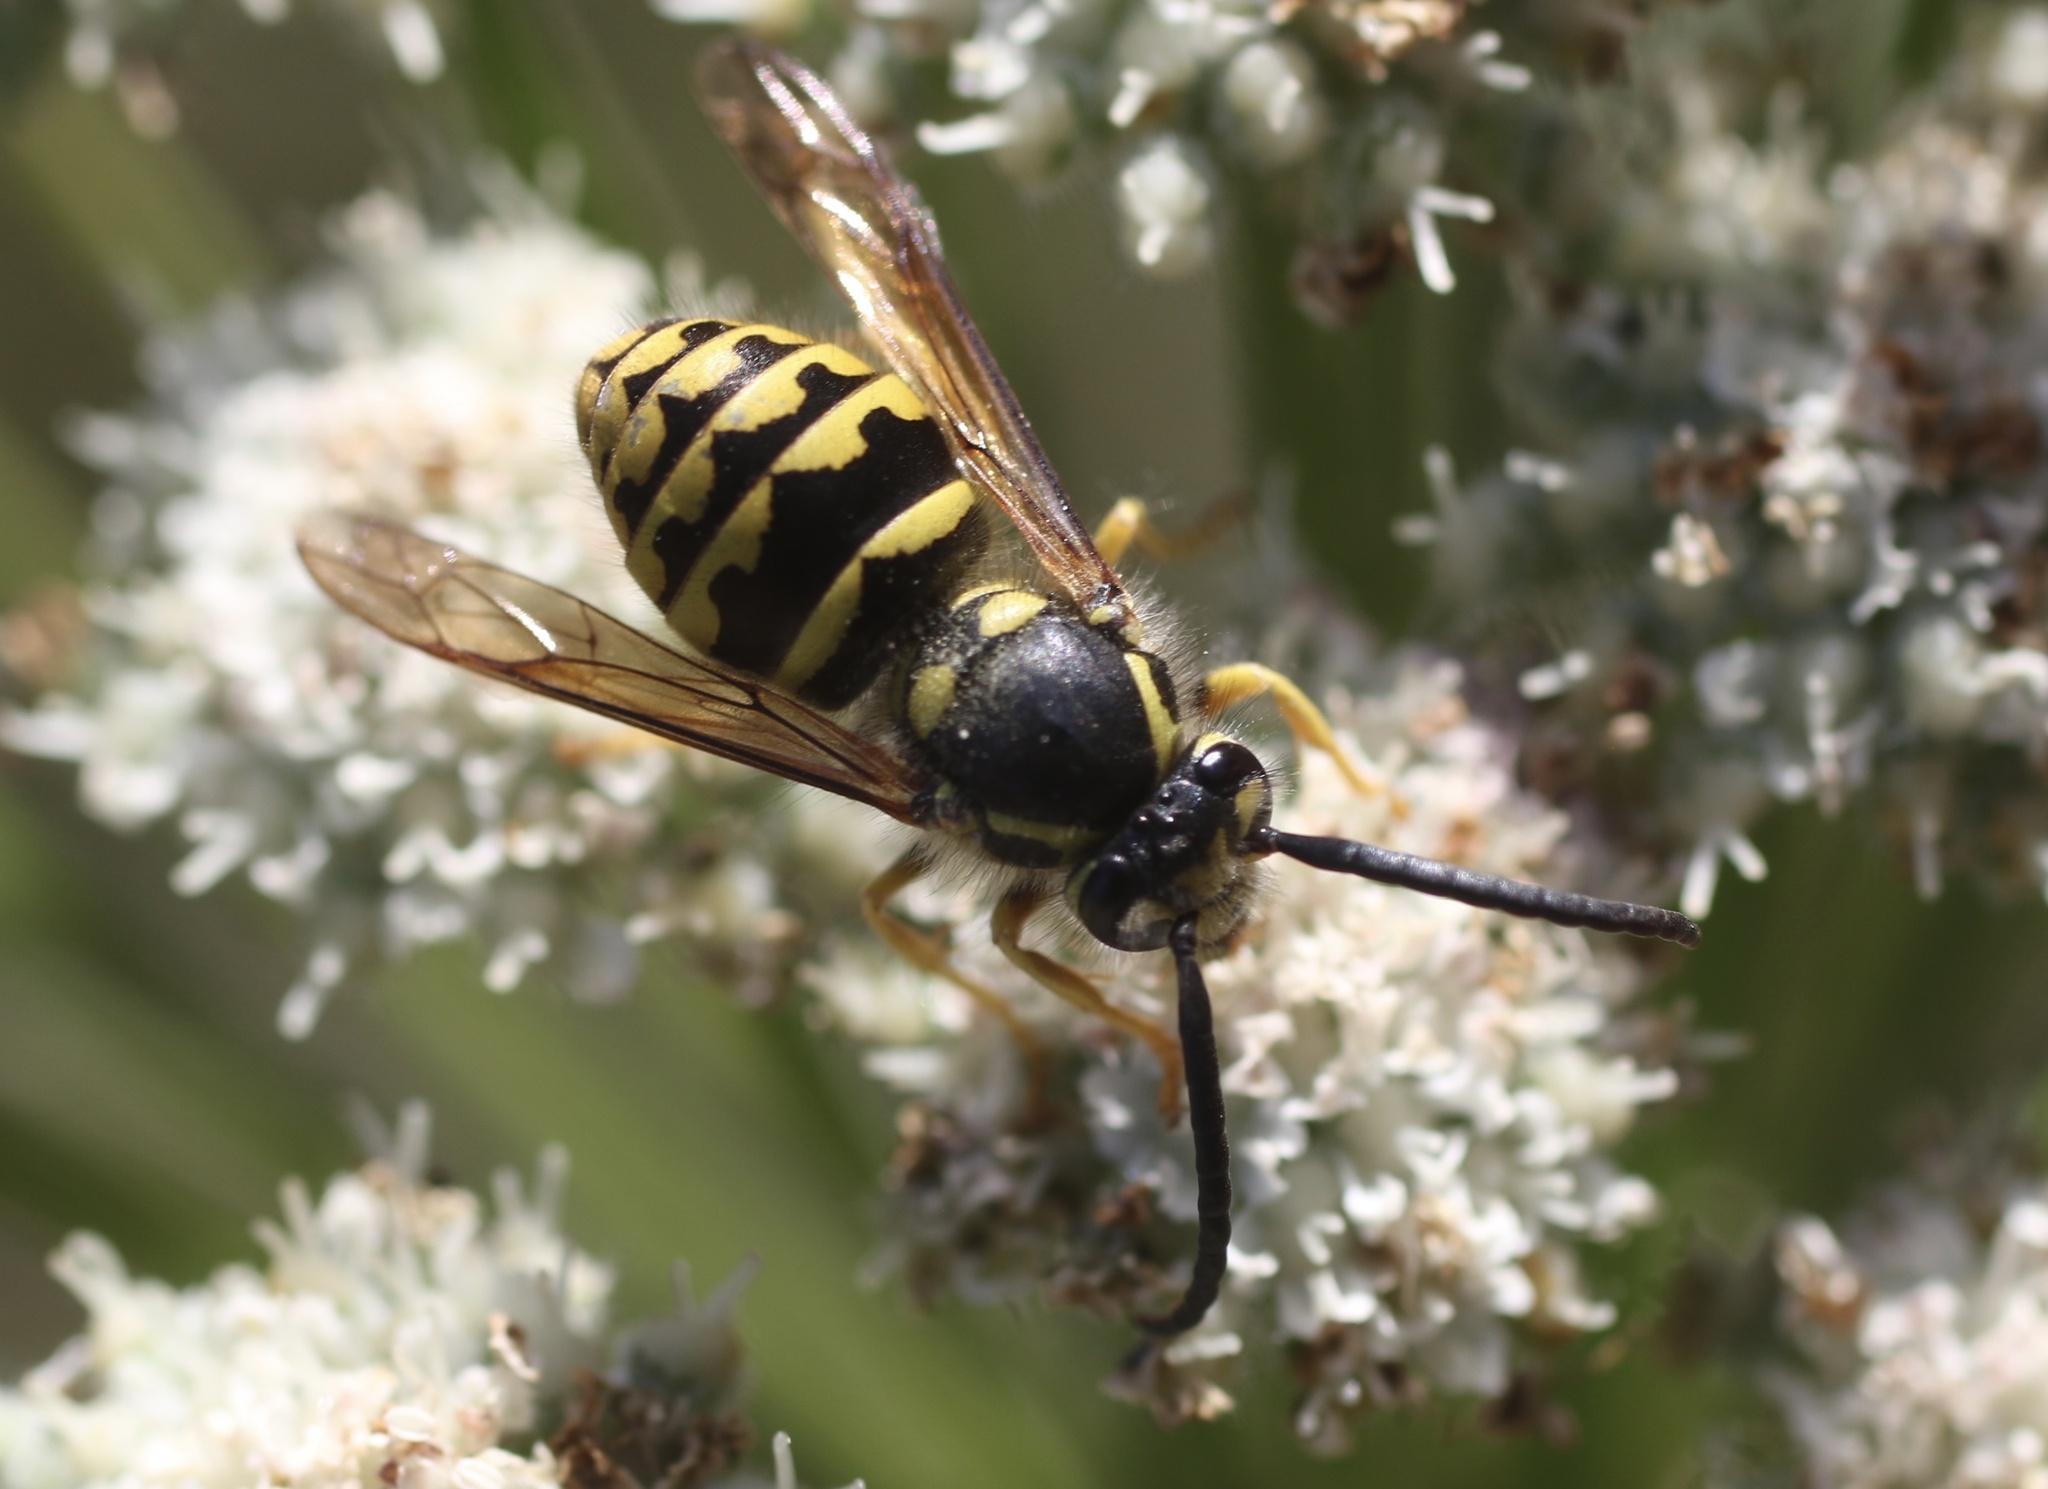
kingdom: Animalia
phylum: Arthropoda
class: Insecta
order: Hymenoptera
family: Vespidae
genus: Dolichovespula
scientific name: Dolichovespula arenaria
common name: Aerial yellowjacket
